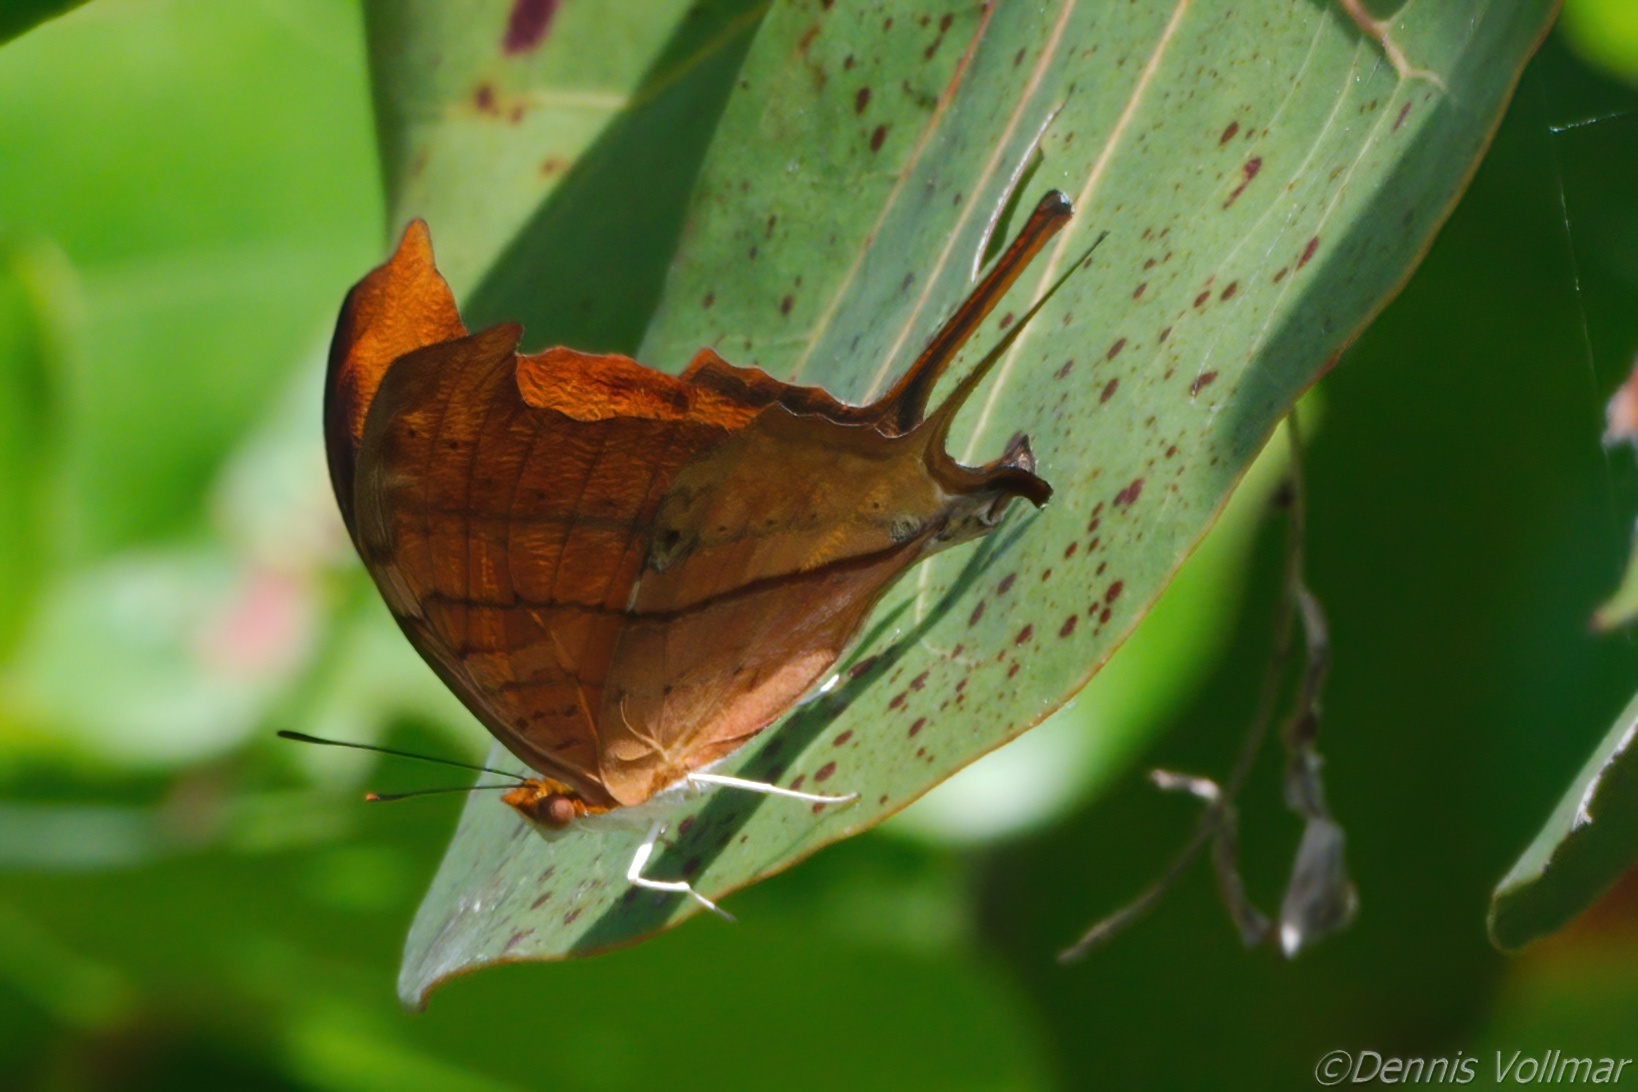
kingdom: Animalia
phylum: Arthropoda
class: Insecta
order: Lepidoptera
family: Nymphalidae
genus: Marpesia
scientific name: Marpesia petreus
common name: Red dagger wing
